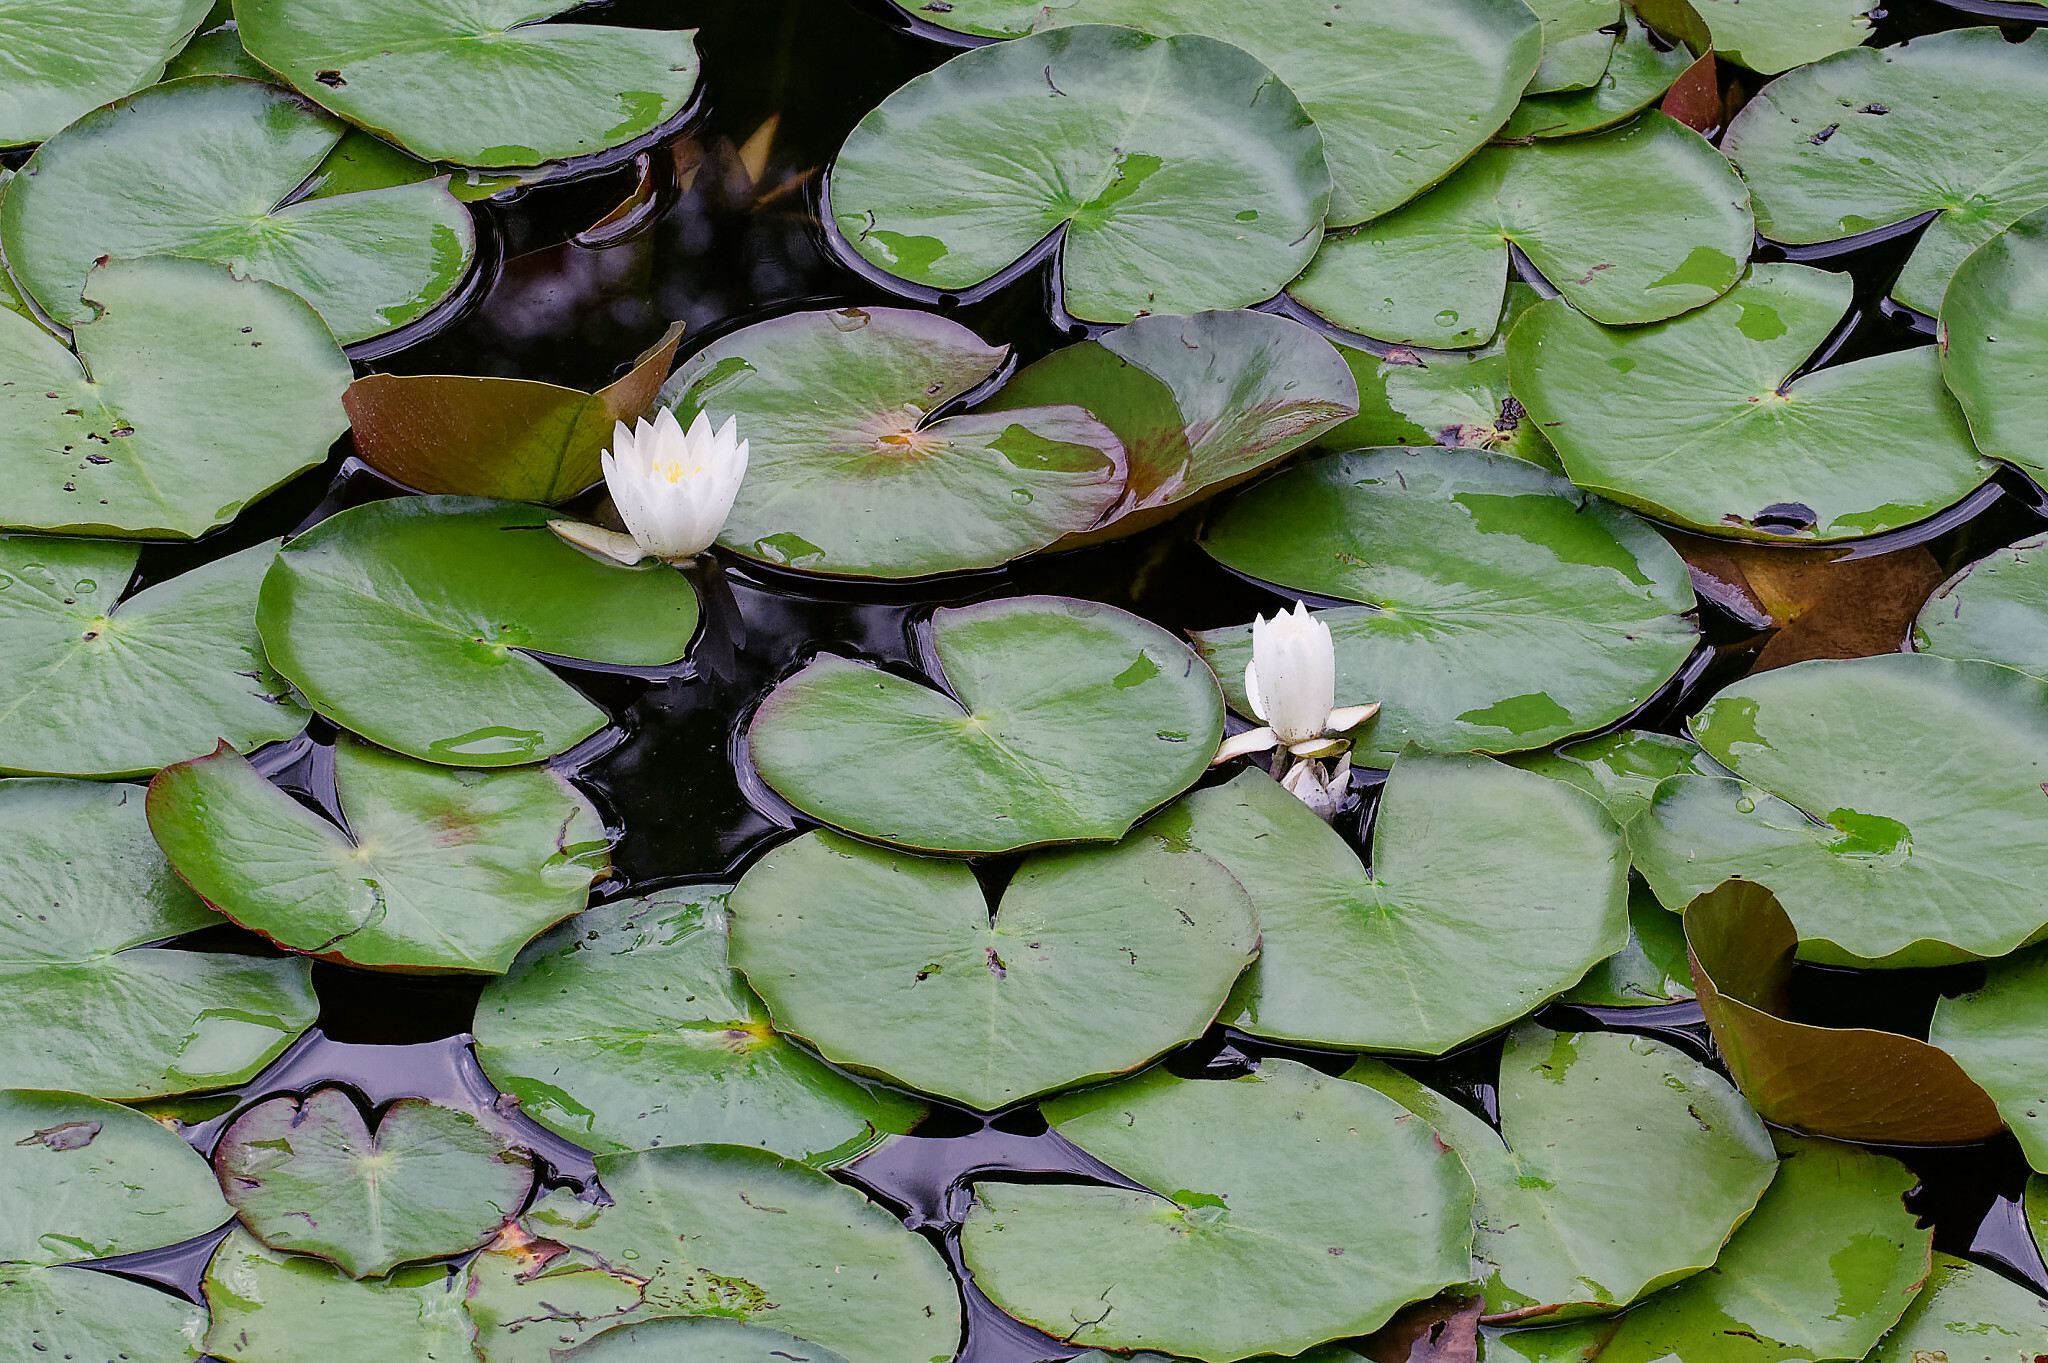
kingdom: Plantae
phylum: Tracheophyta
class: Magnoliopsida
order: Nymphaeales
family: Nymphaeaceae
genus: Nymphaea
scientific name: Nymphaea odorata
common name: Fragrant water-lily
